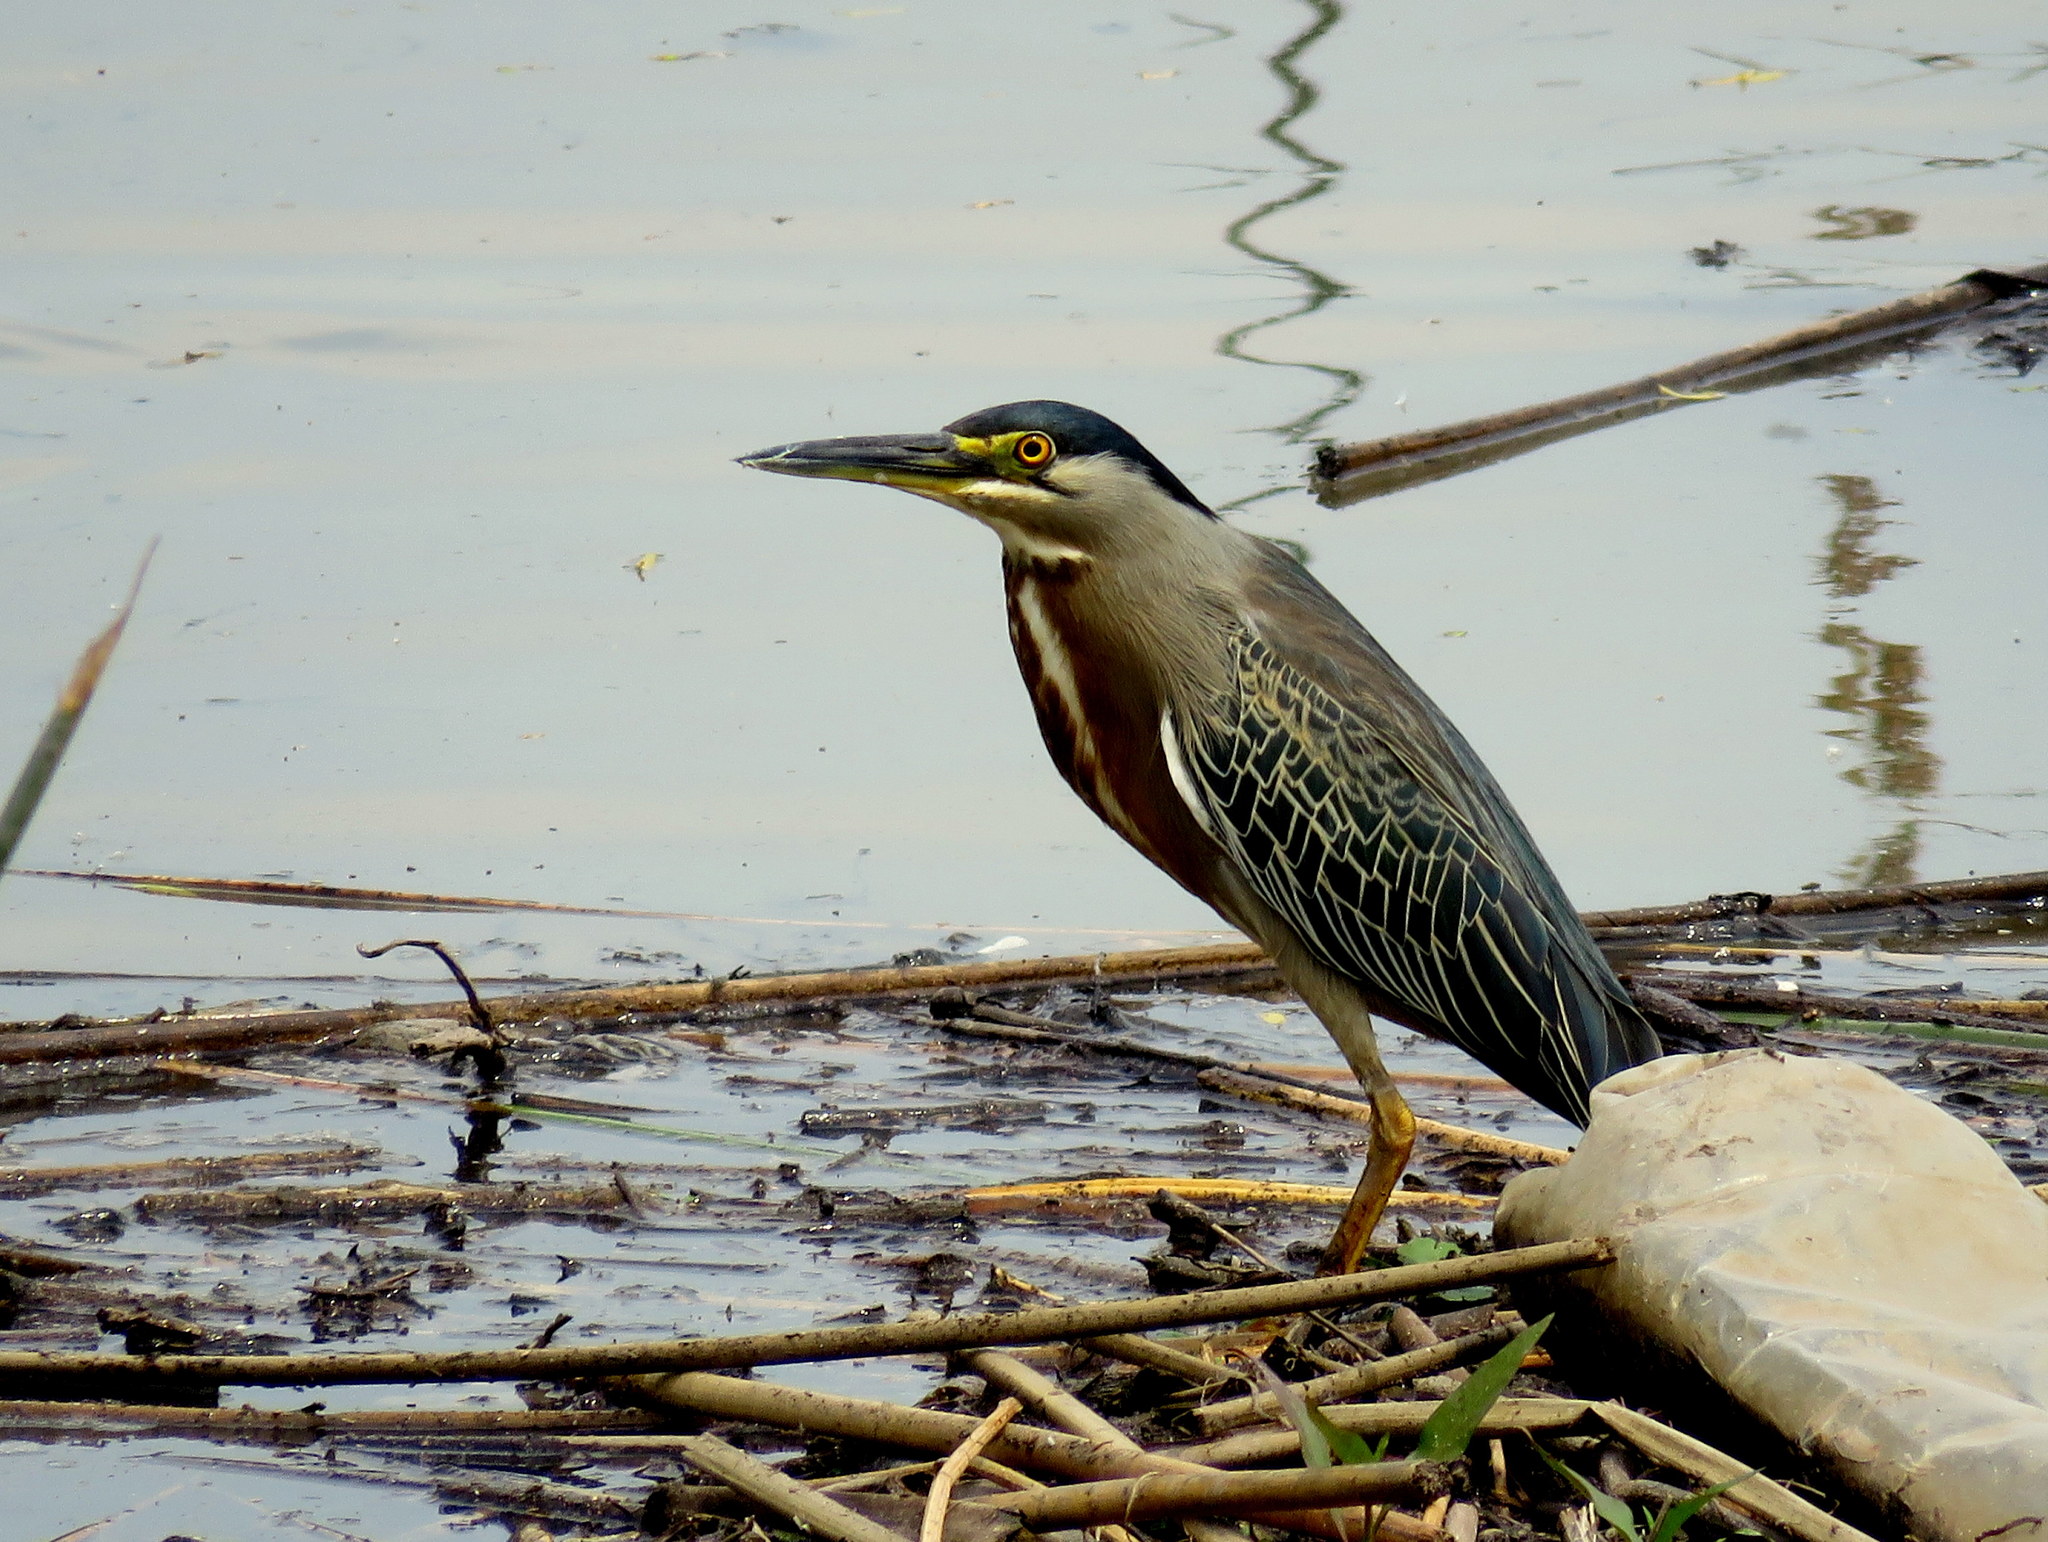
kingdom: Animalia
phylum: Chordata
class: Aves
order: Pelecaniformes
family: Ardeidae
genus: Butorides
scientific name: Butorides striata
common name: Striated heron
